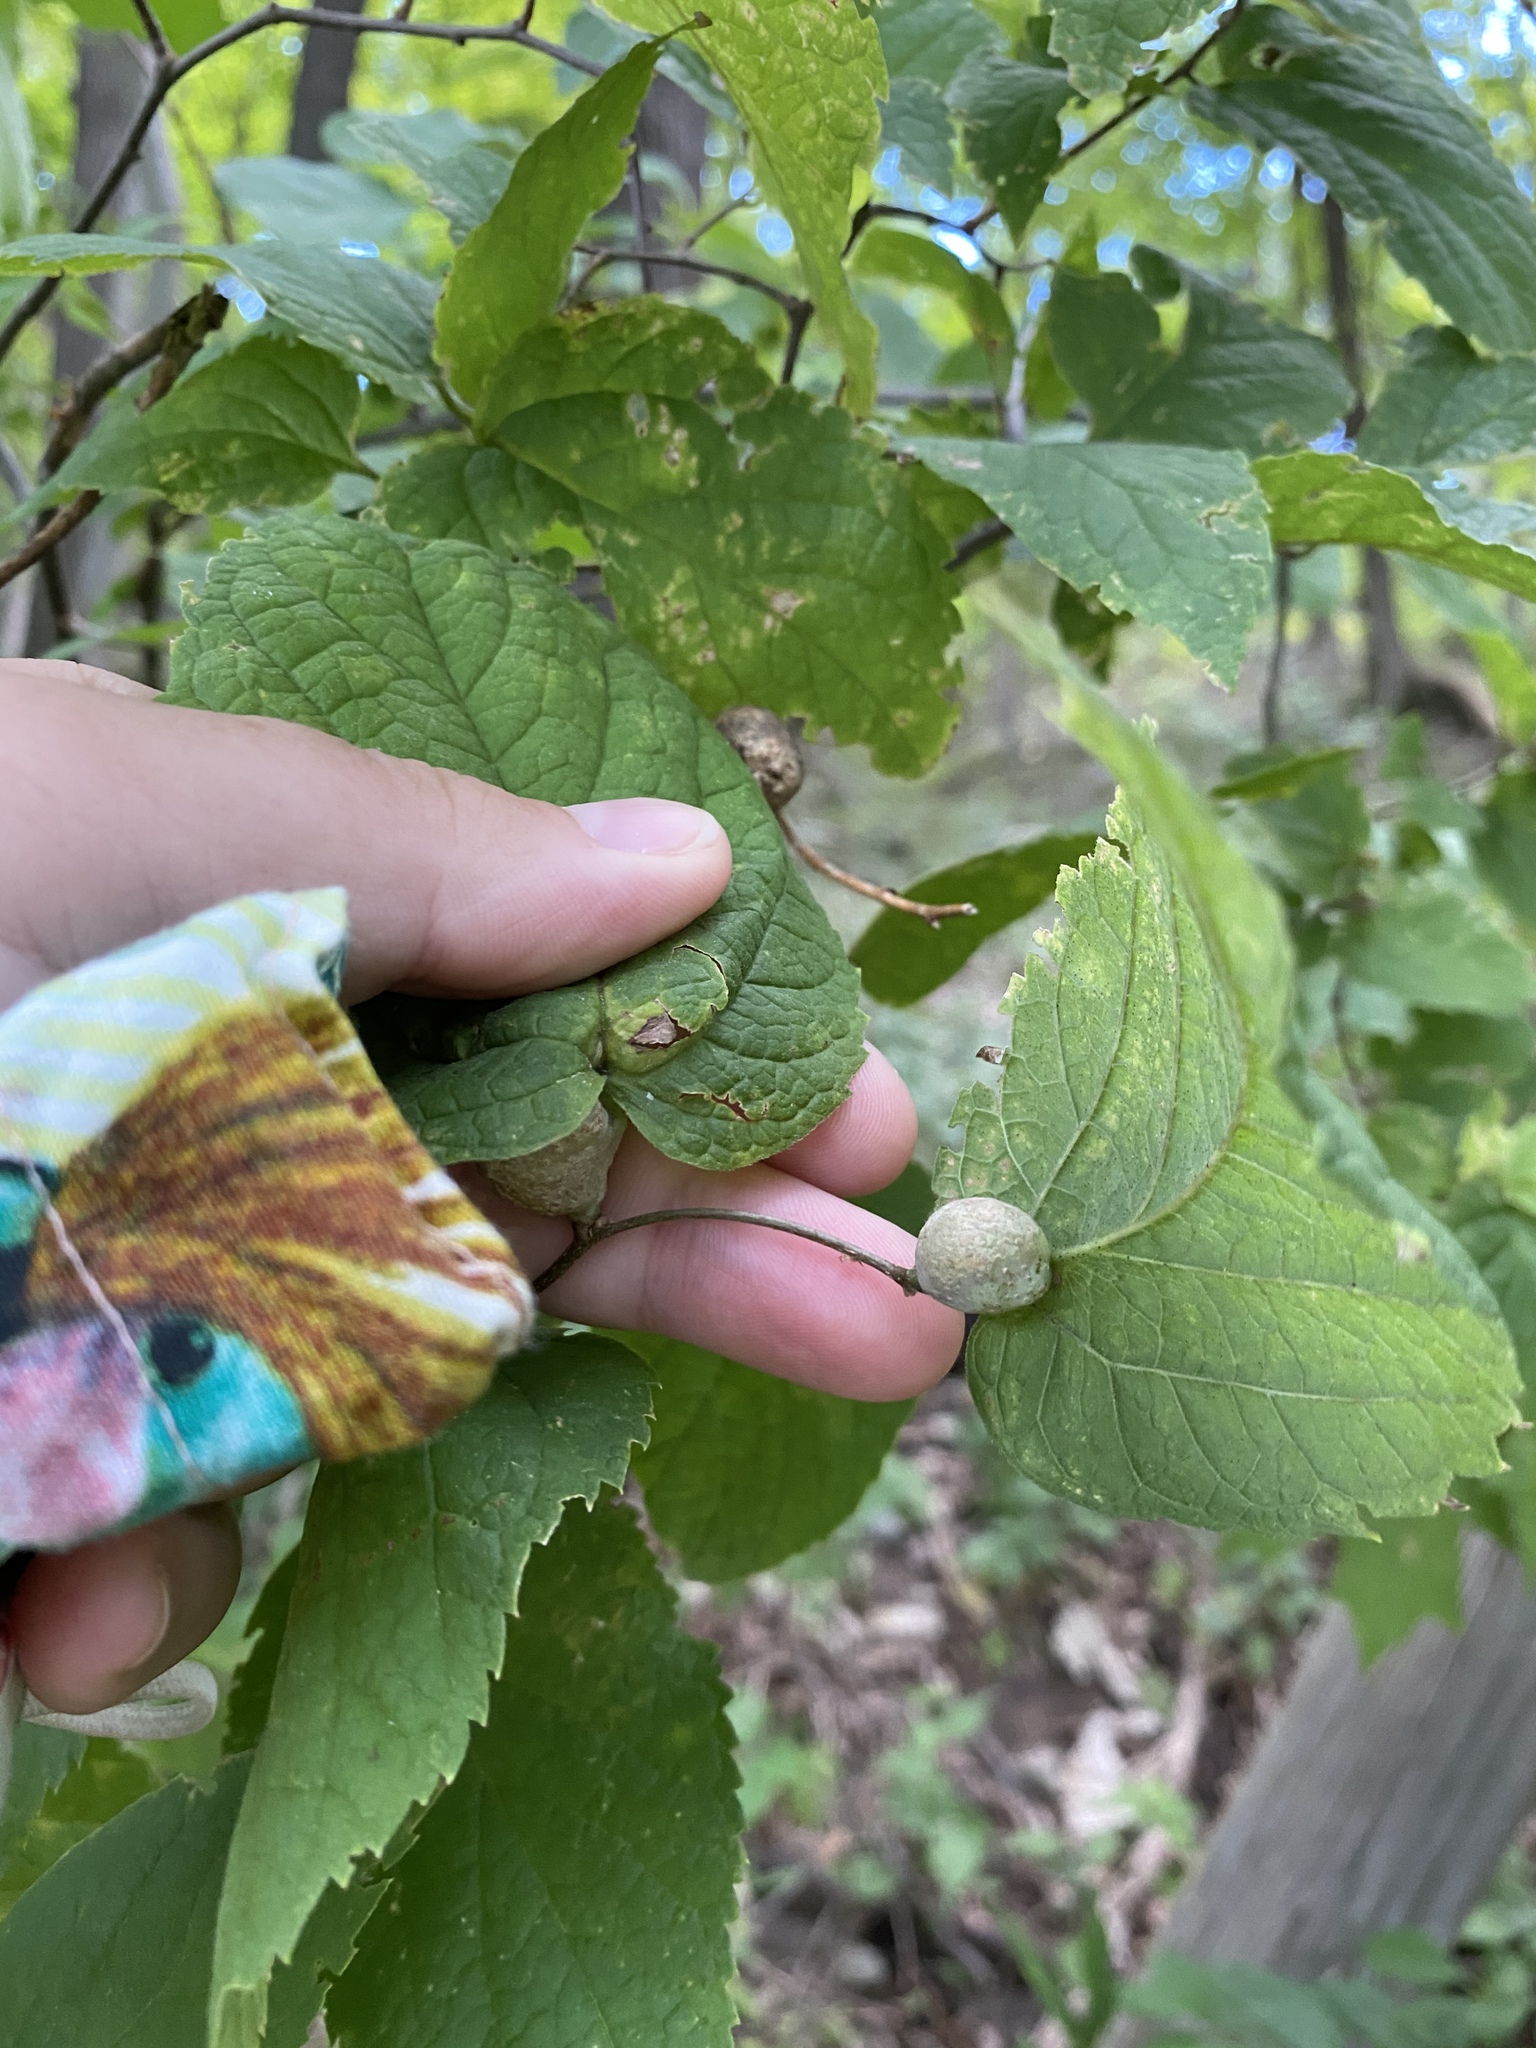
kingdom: Animalia
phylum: Arthropoda
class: Insecta
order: Hemiptera
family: Aphalaridae
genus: Pachypsylla
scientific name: Pachypsylla venusta
